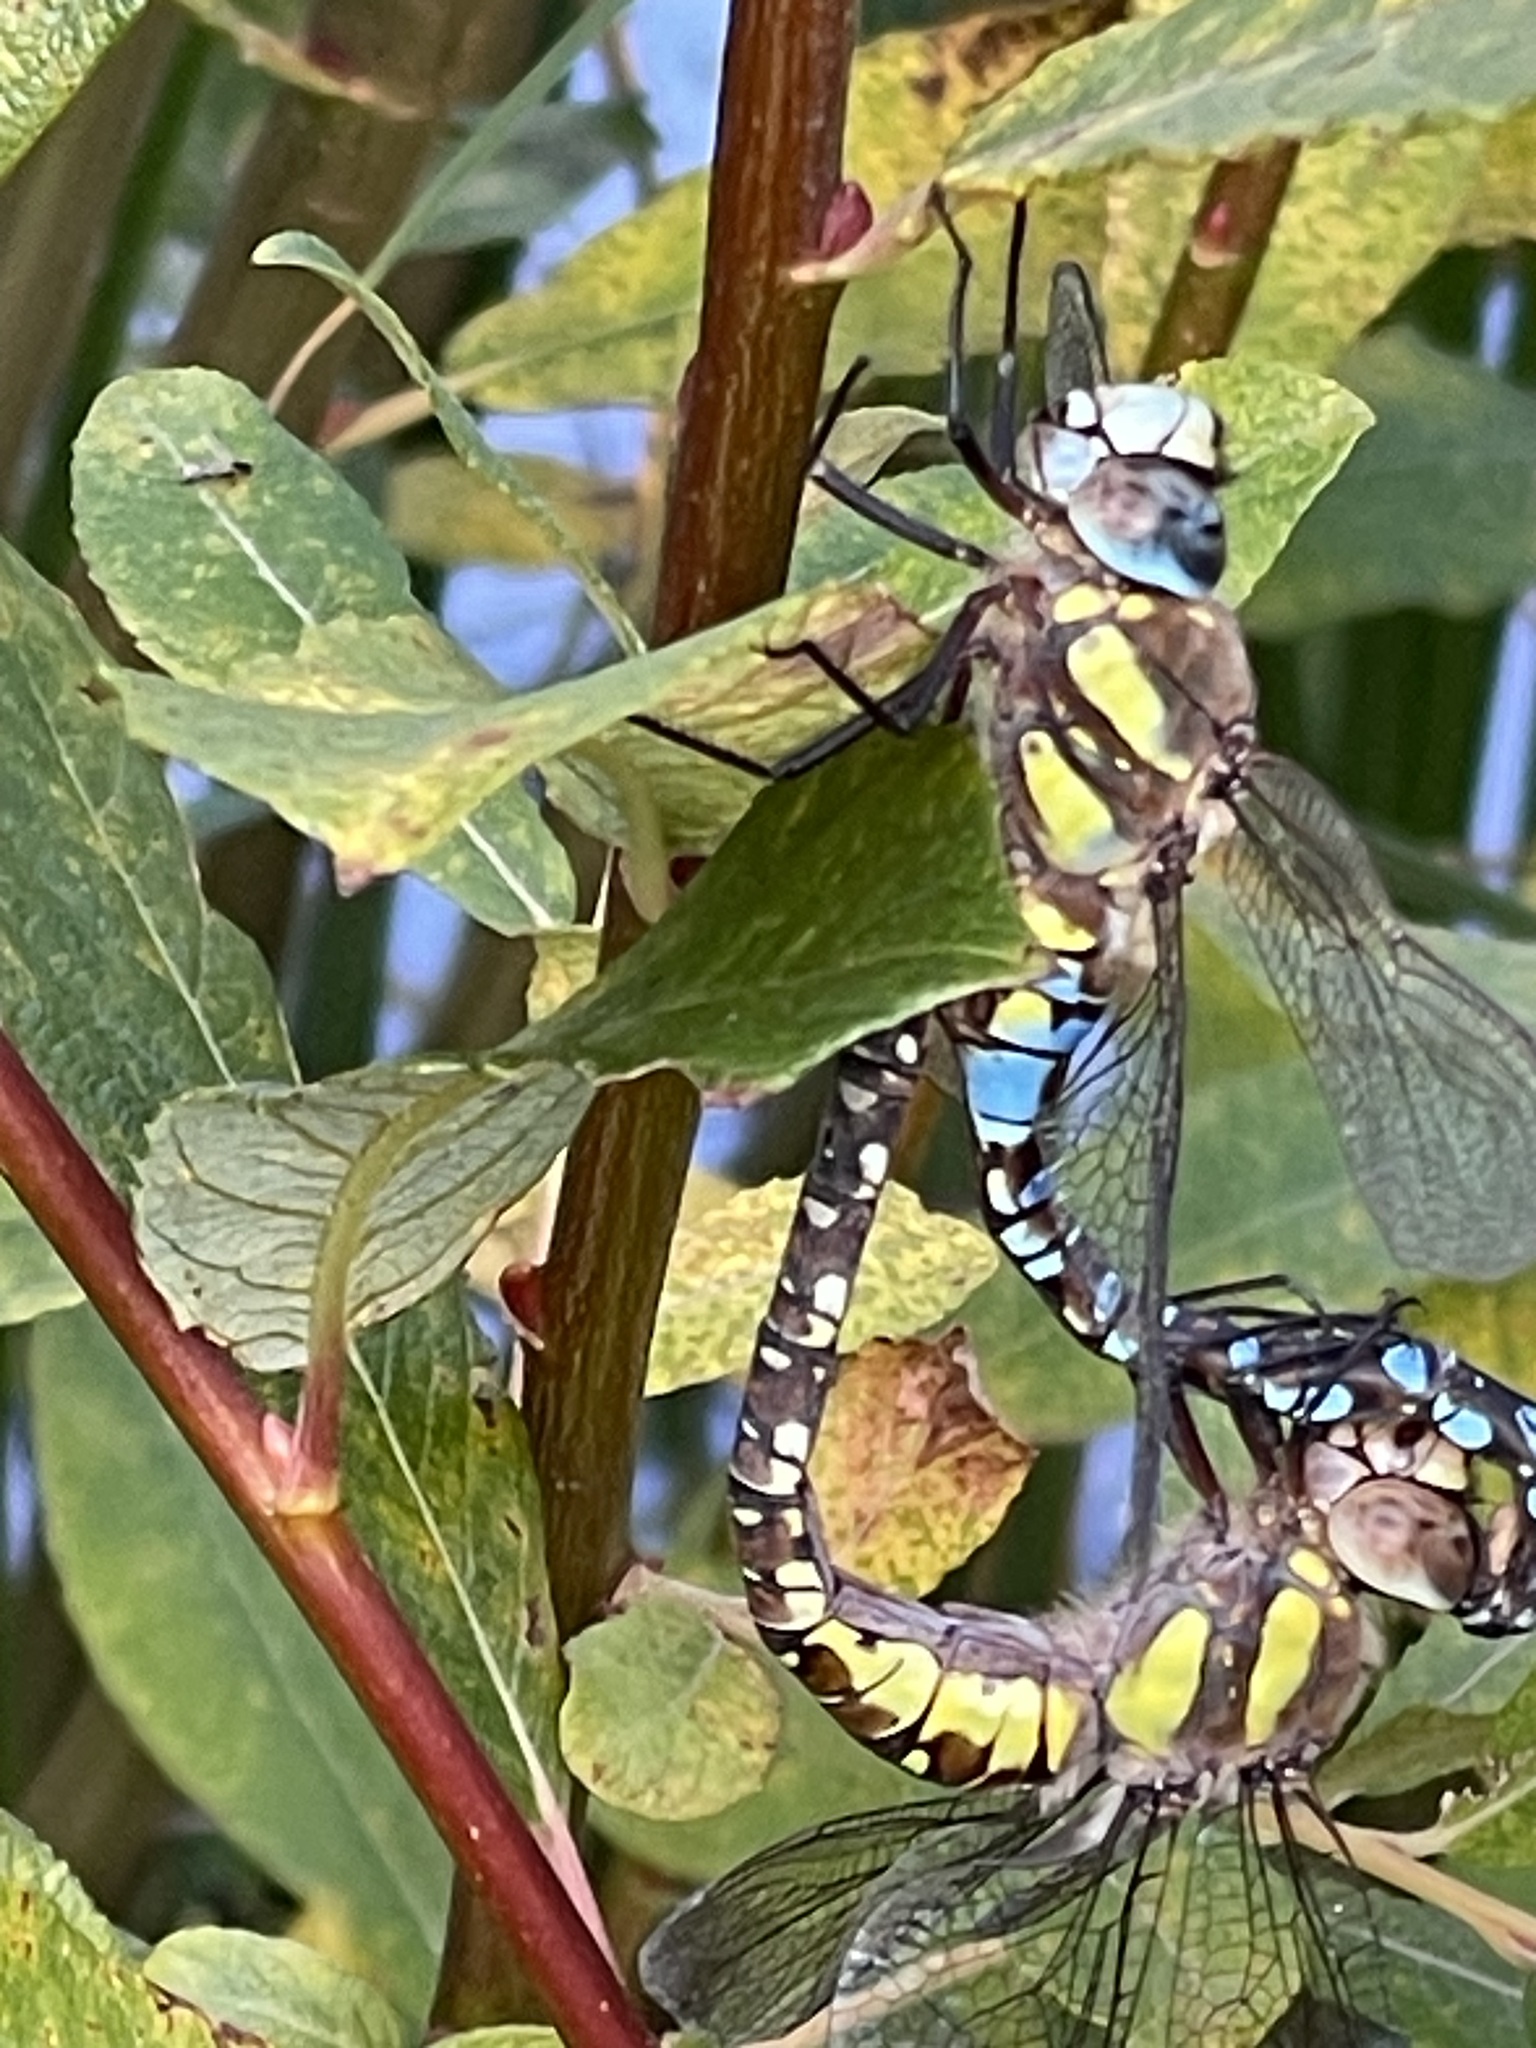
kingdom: Animalia
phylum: Arthropoda
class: Insecta
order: Odonata
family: Aeshnidae
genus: Aeshna
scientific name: Aeshna mixta
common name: Migrant hawker
